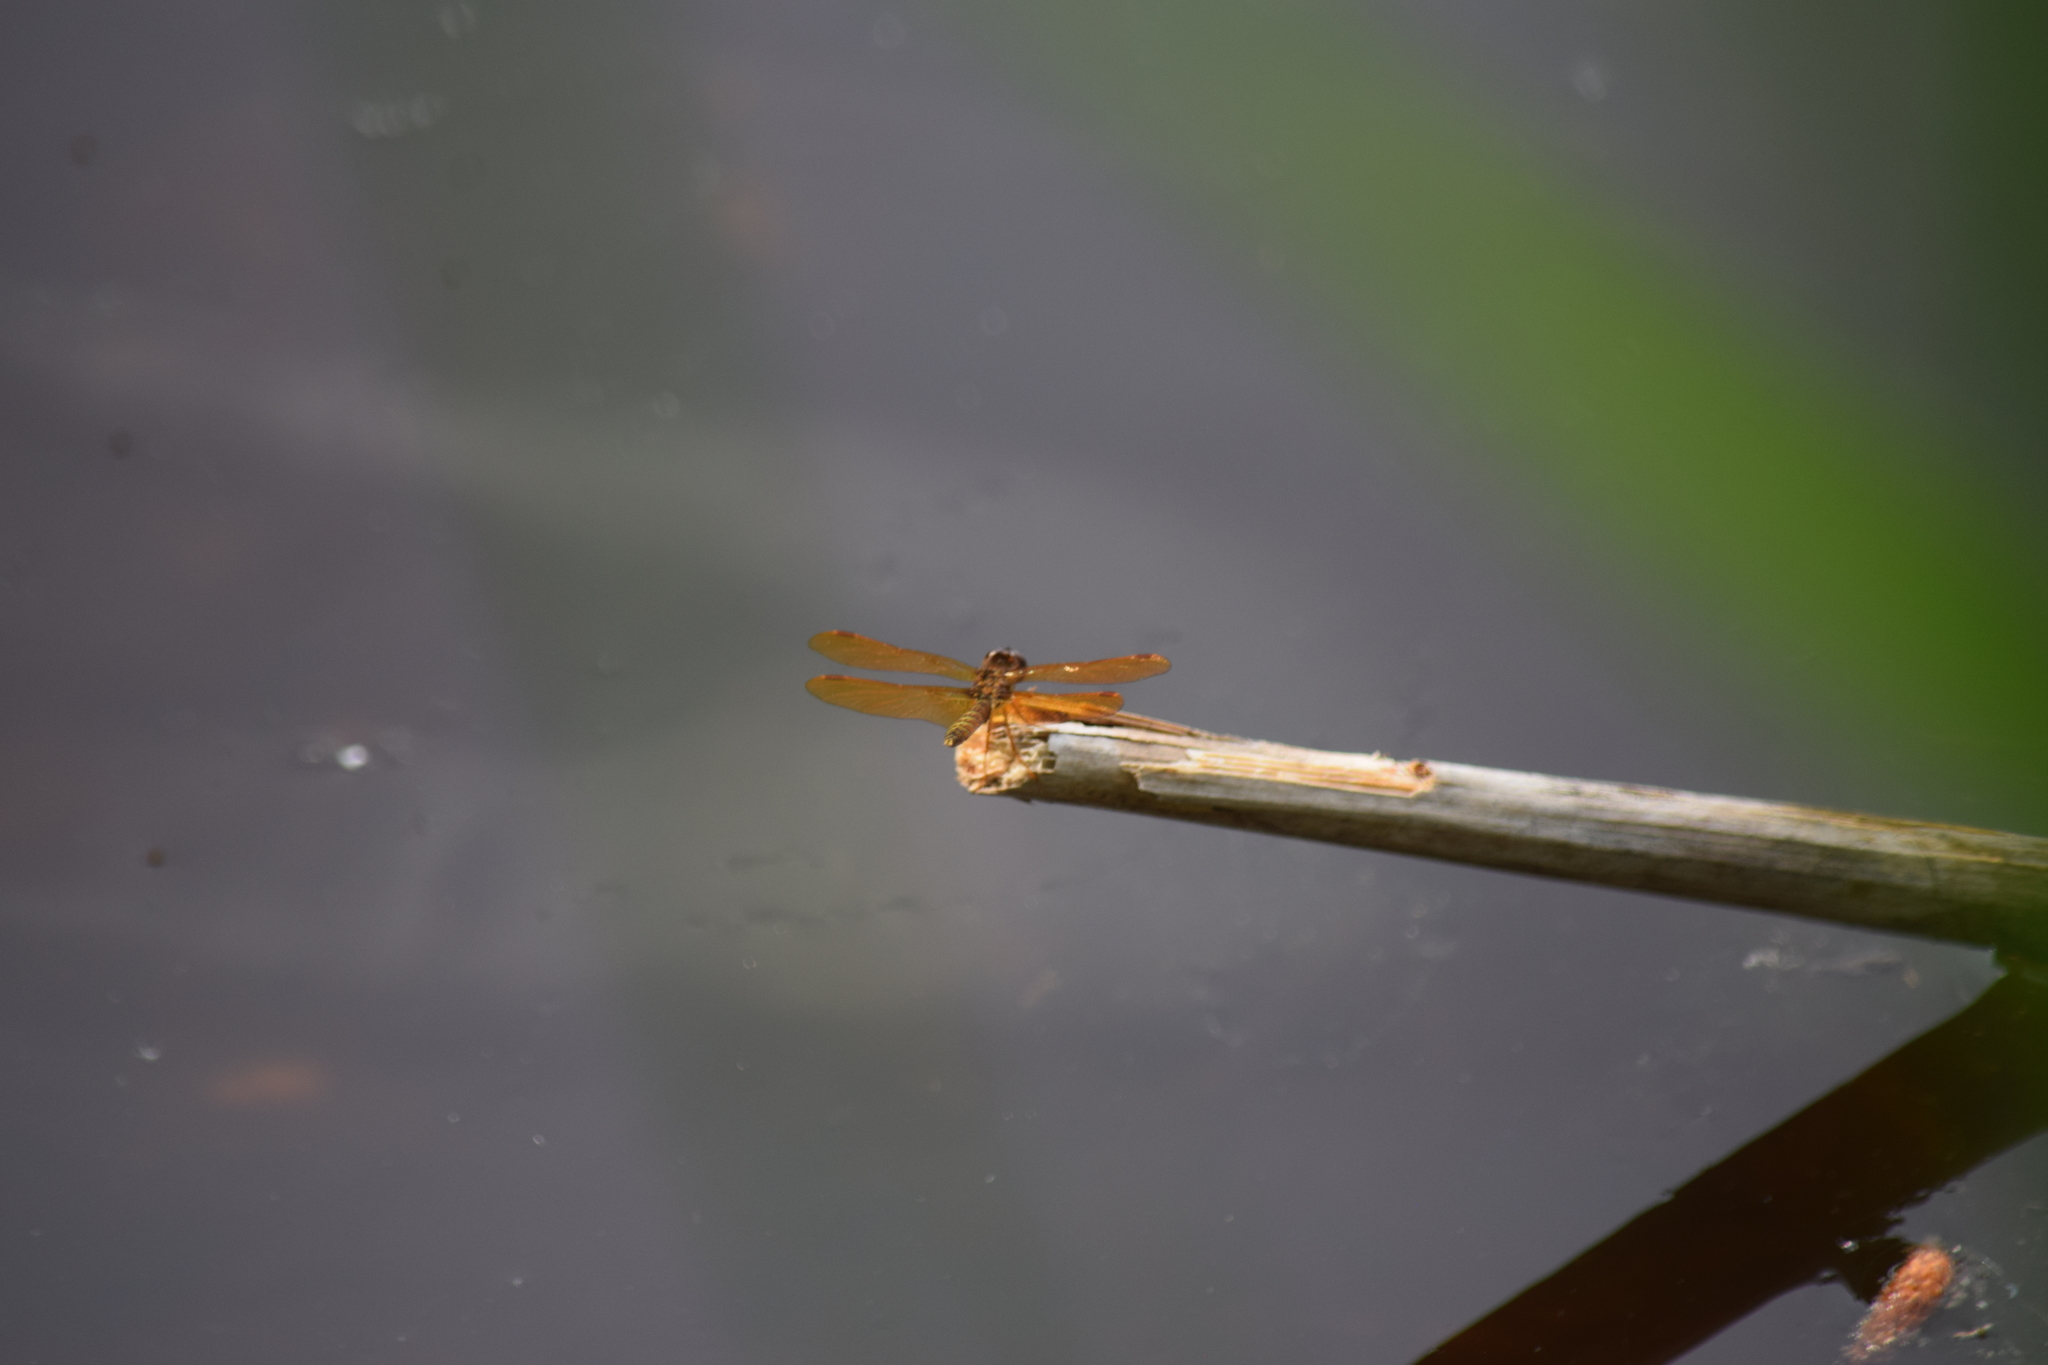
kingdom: Animalia
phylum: Arthropoda
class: Insecta
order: Odonata
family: Libellulidae
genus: Perithemis
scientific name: Perithemis tenera
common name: Eastern amberwing
